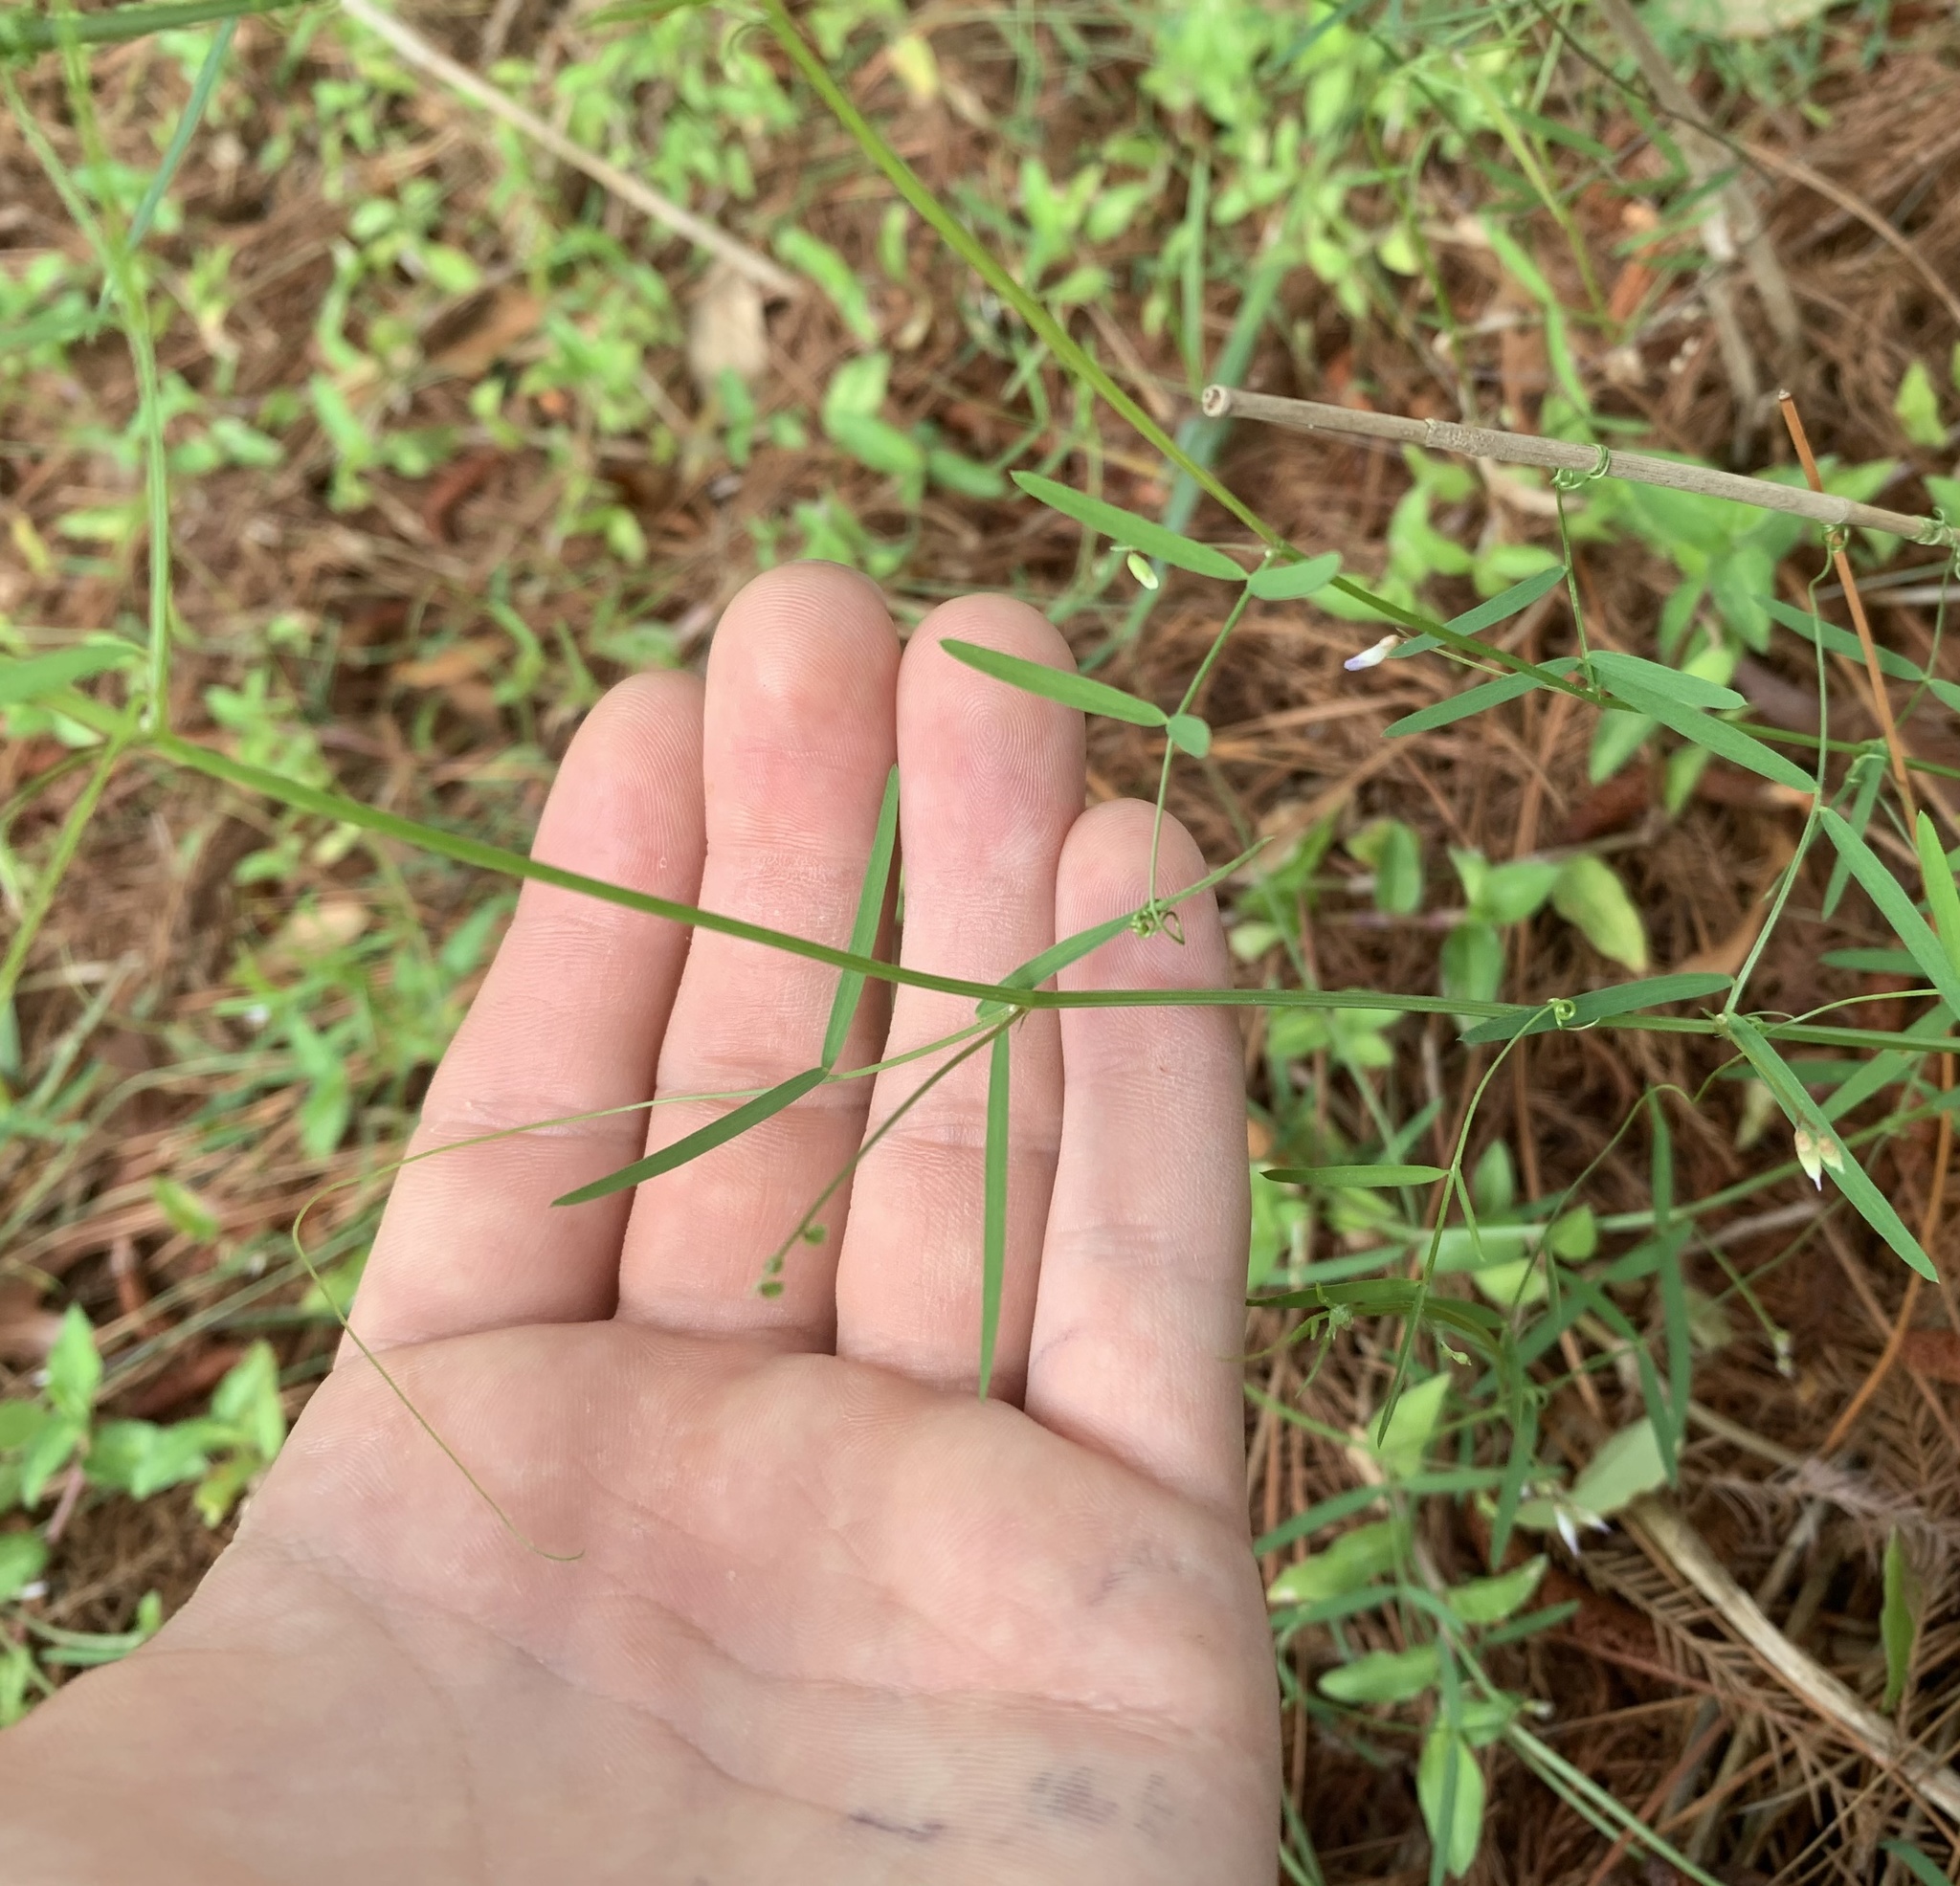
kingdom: Plantae
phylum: Tracheophyta
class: Magnoliopsida
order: Fabales
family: Fabaceae
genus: Vicia
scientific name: Vicia acutifolia
